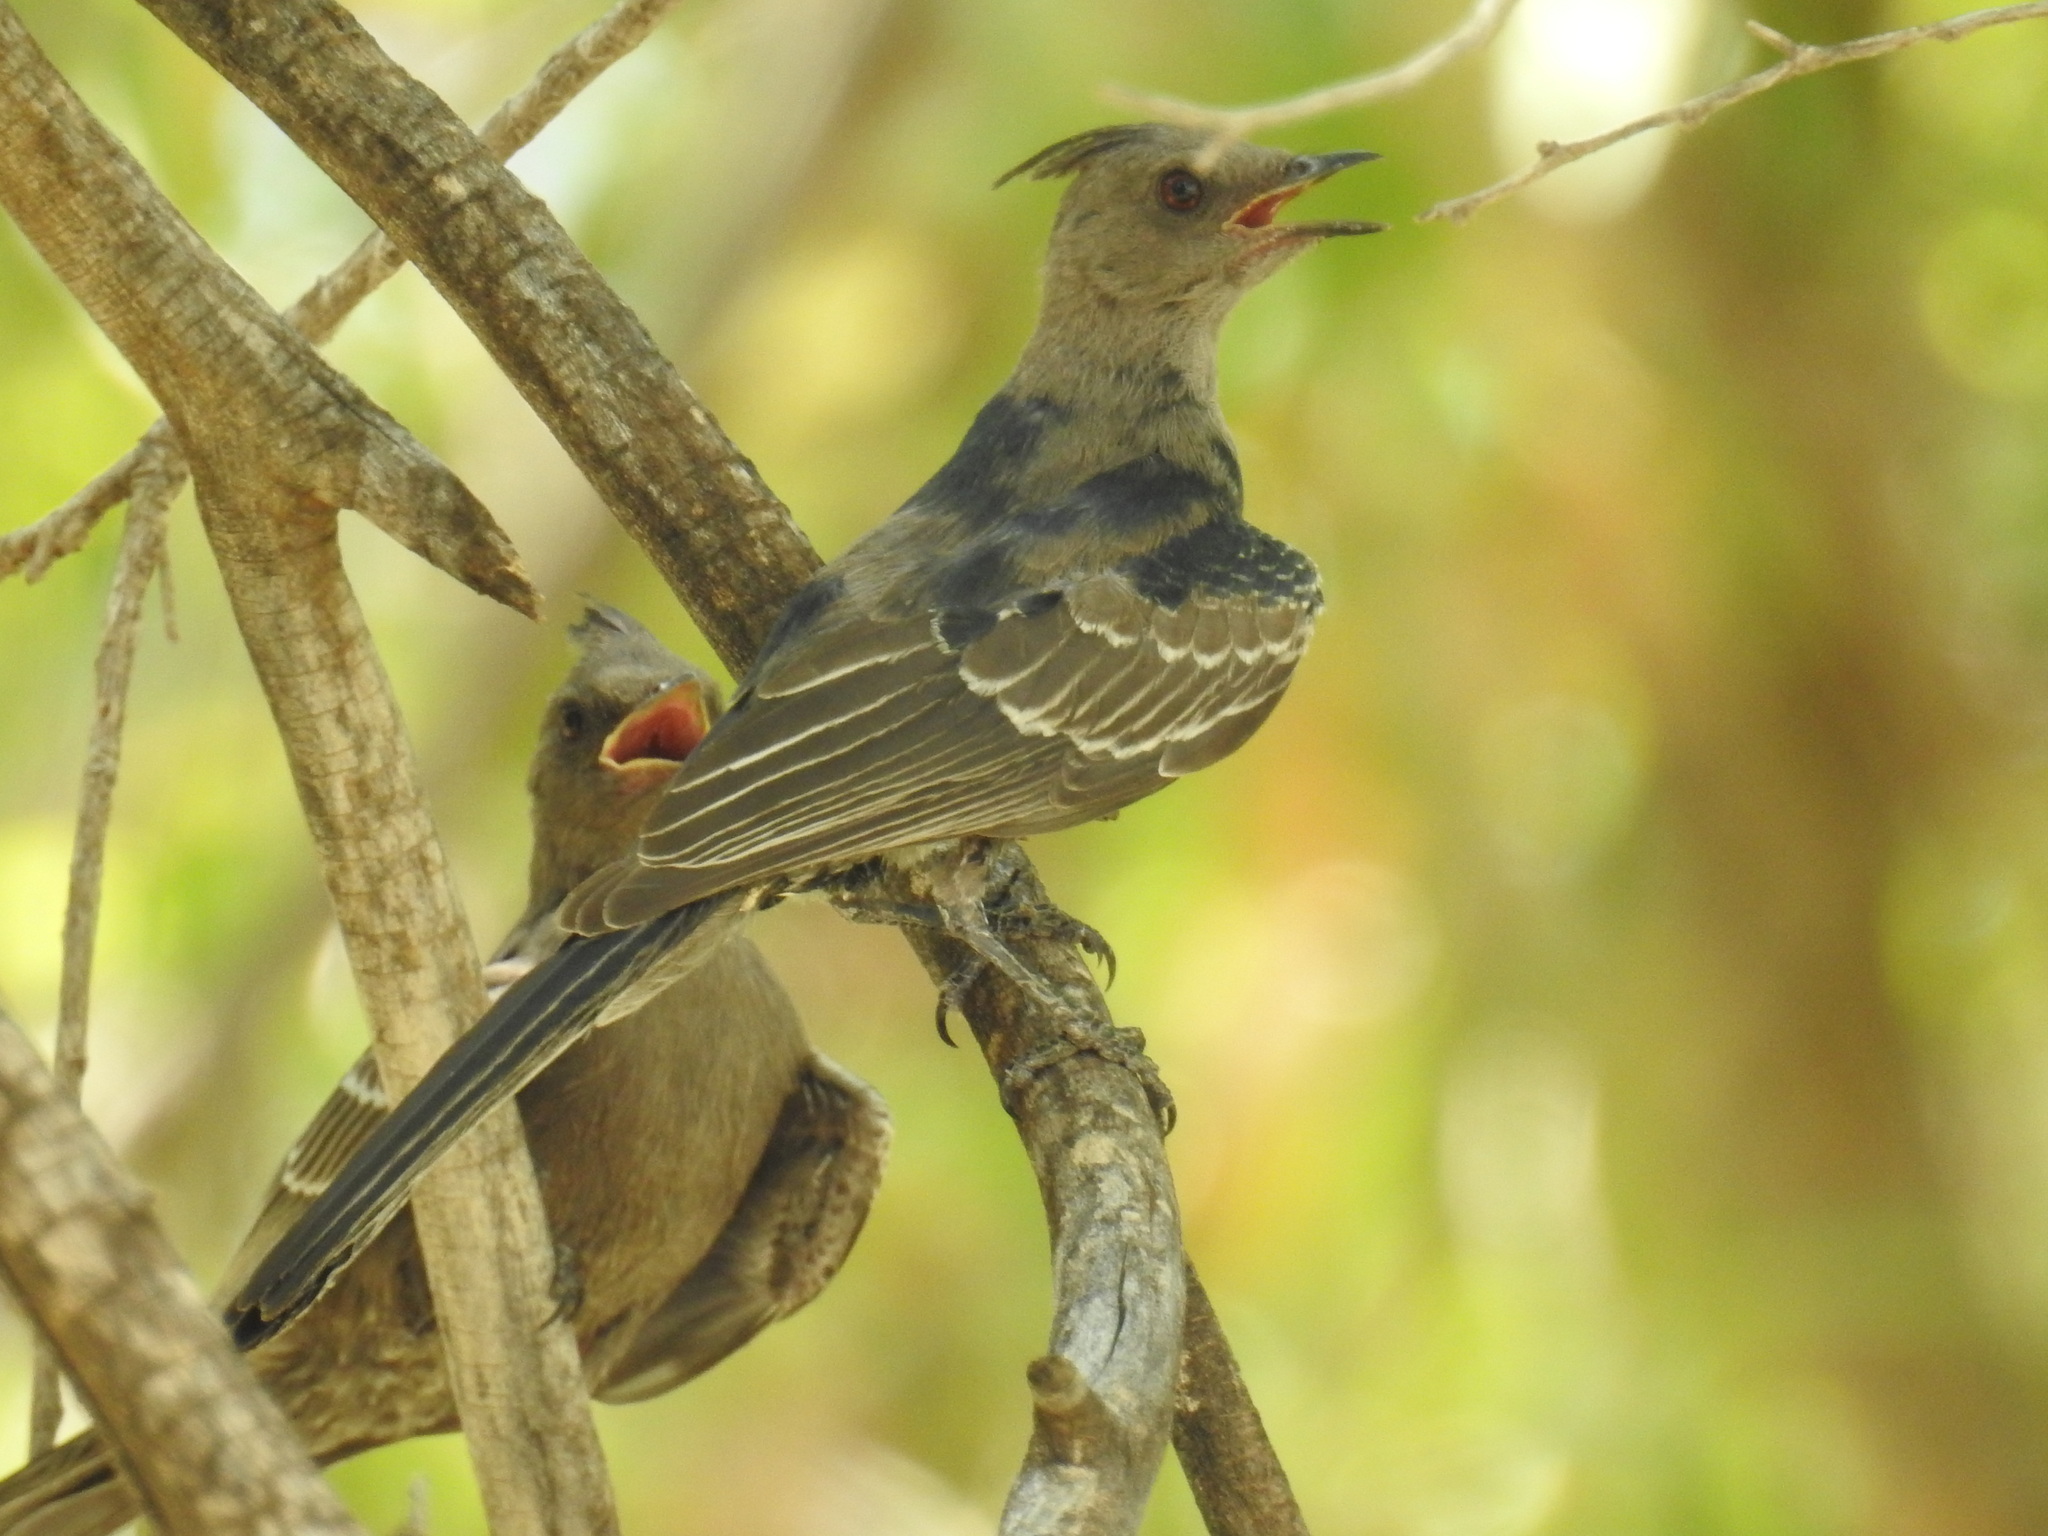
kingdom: Animalia
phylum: Chordata
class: Aves
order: Passeriformes
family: Ptilogonatidae
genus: Phainopepla
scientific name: Phainopepla nitens
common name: Phainopepla
